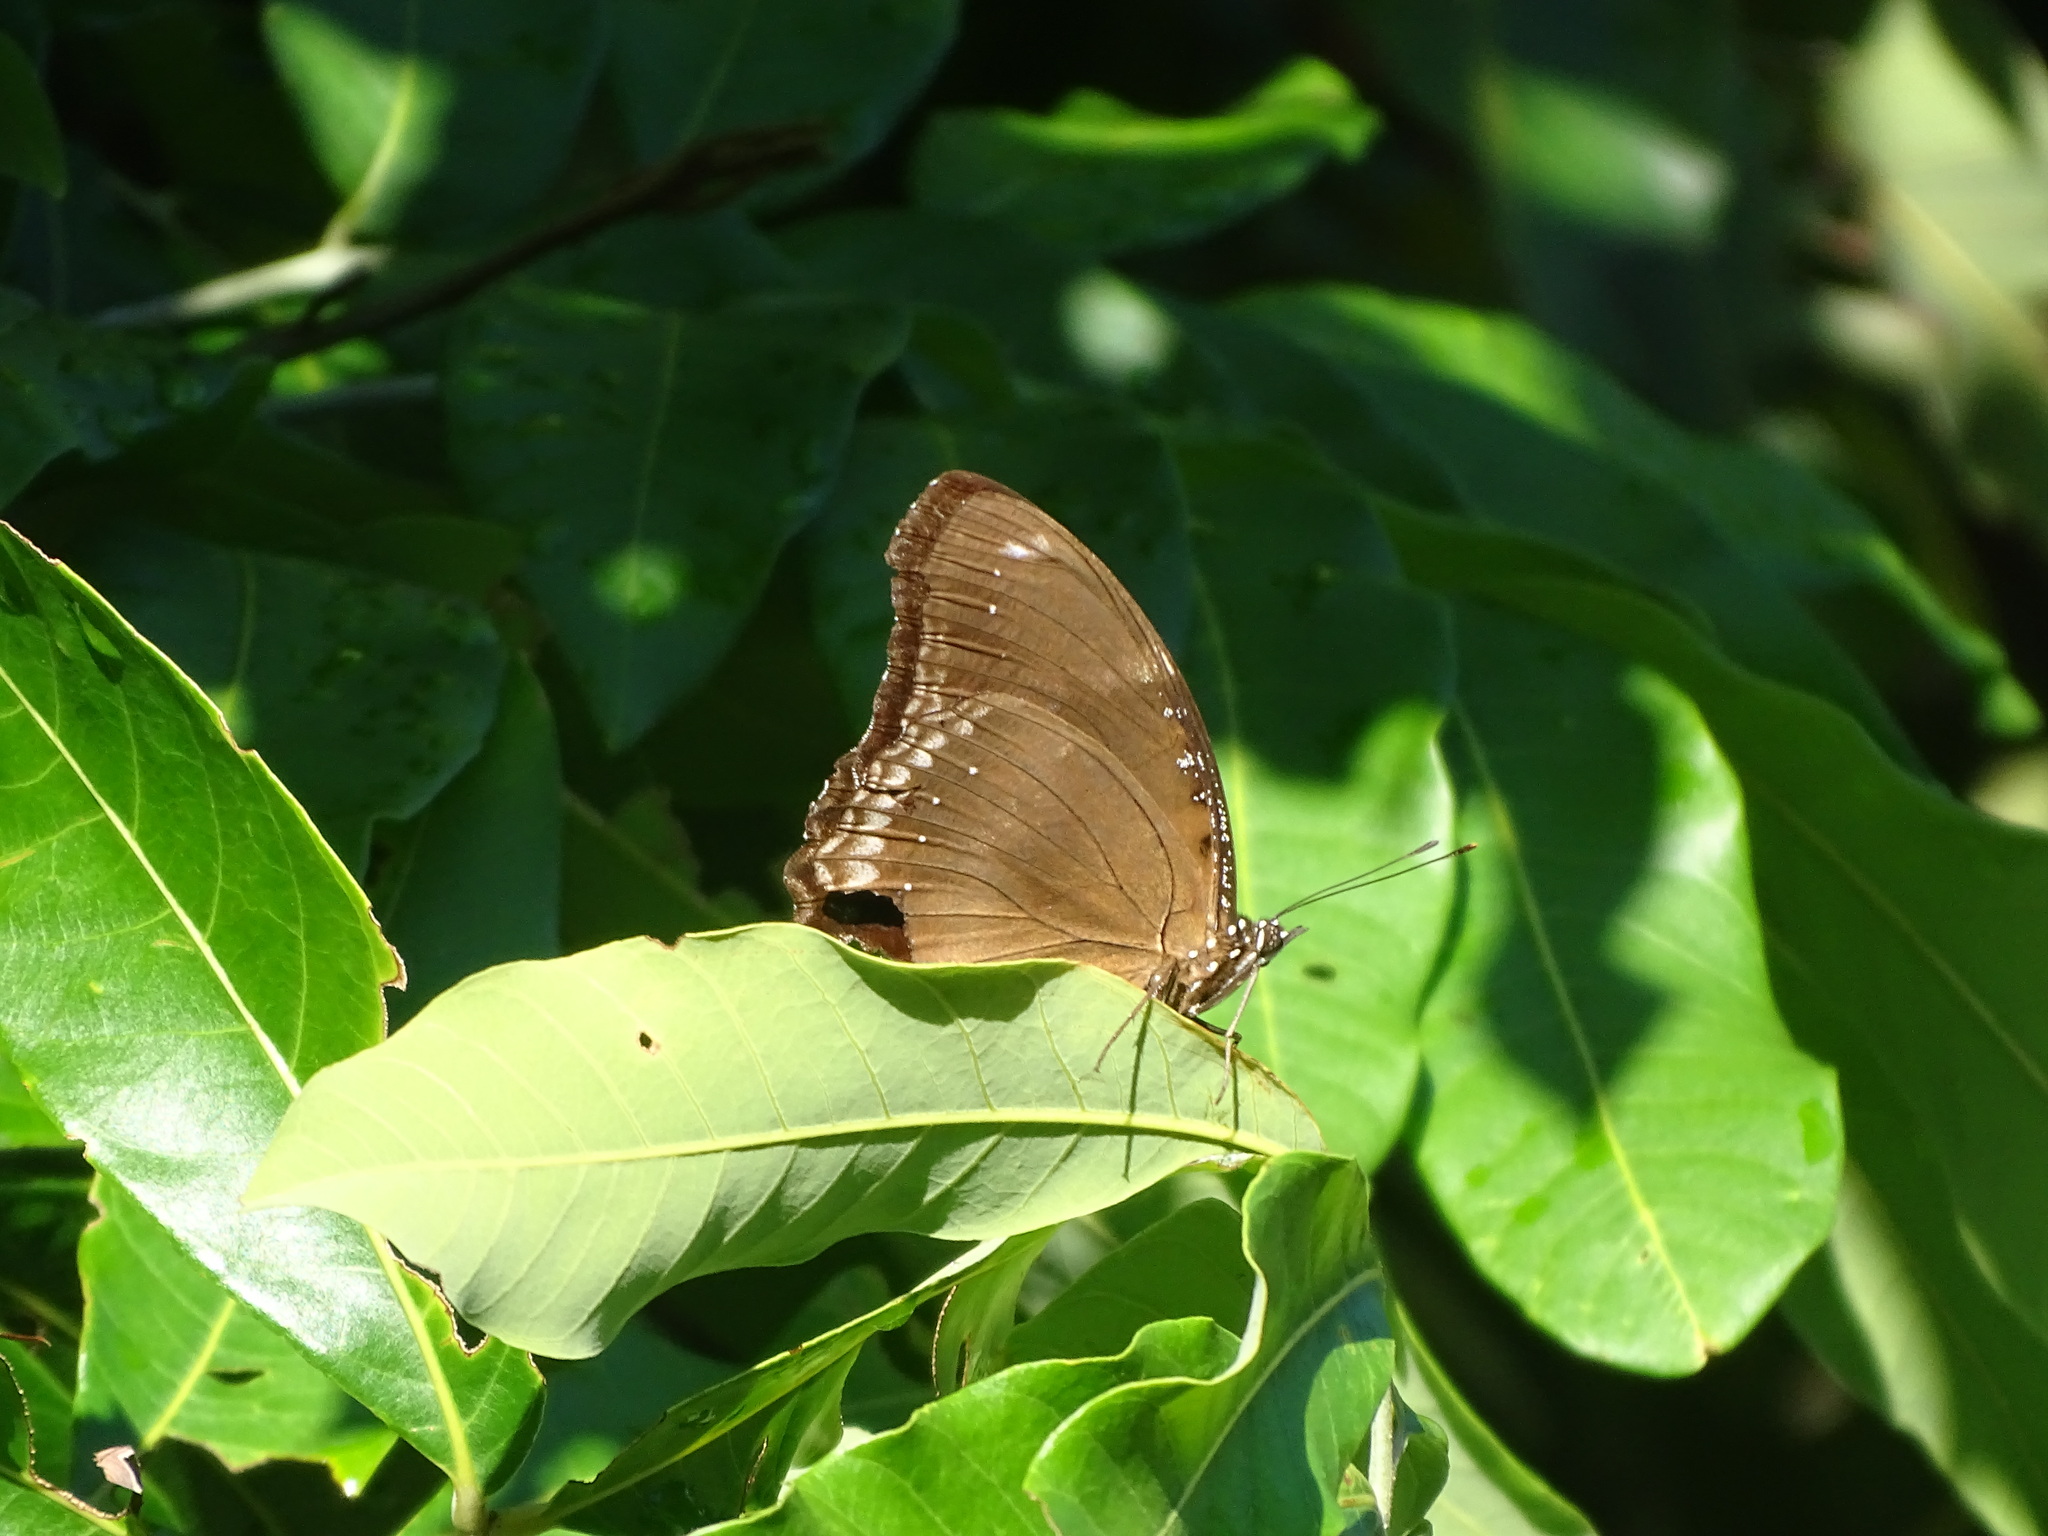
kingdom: Animalia
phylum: Arthropoda
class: Insecta
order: Lepidoptera
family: Nymphalidae
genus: Hypolimnas
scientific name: Hypolimnas bolina
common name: Great eggfly
